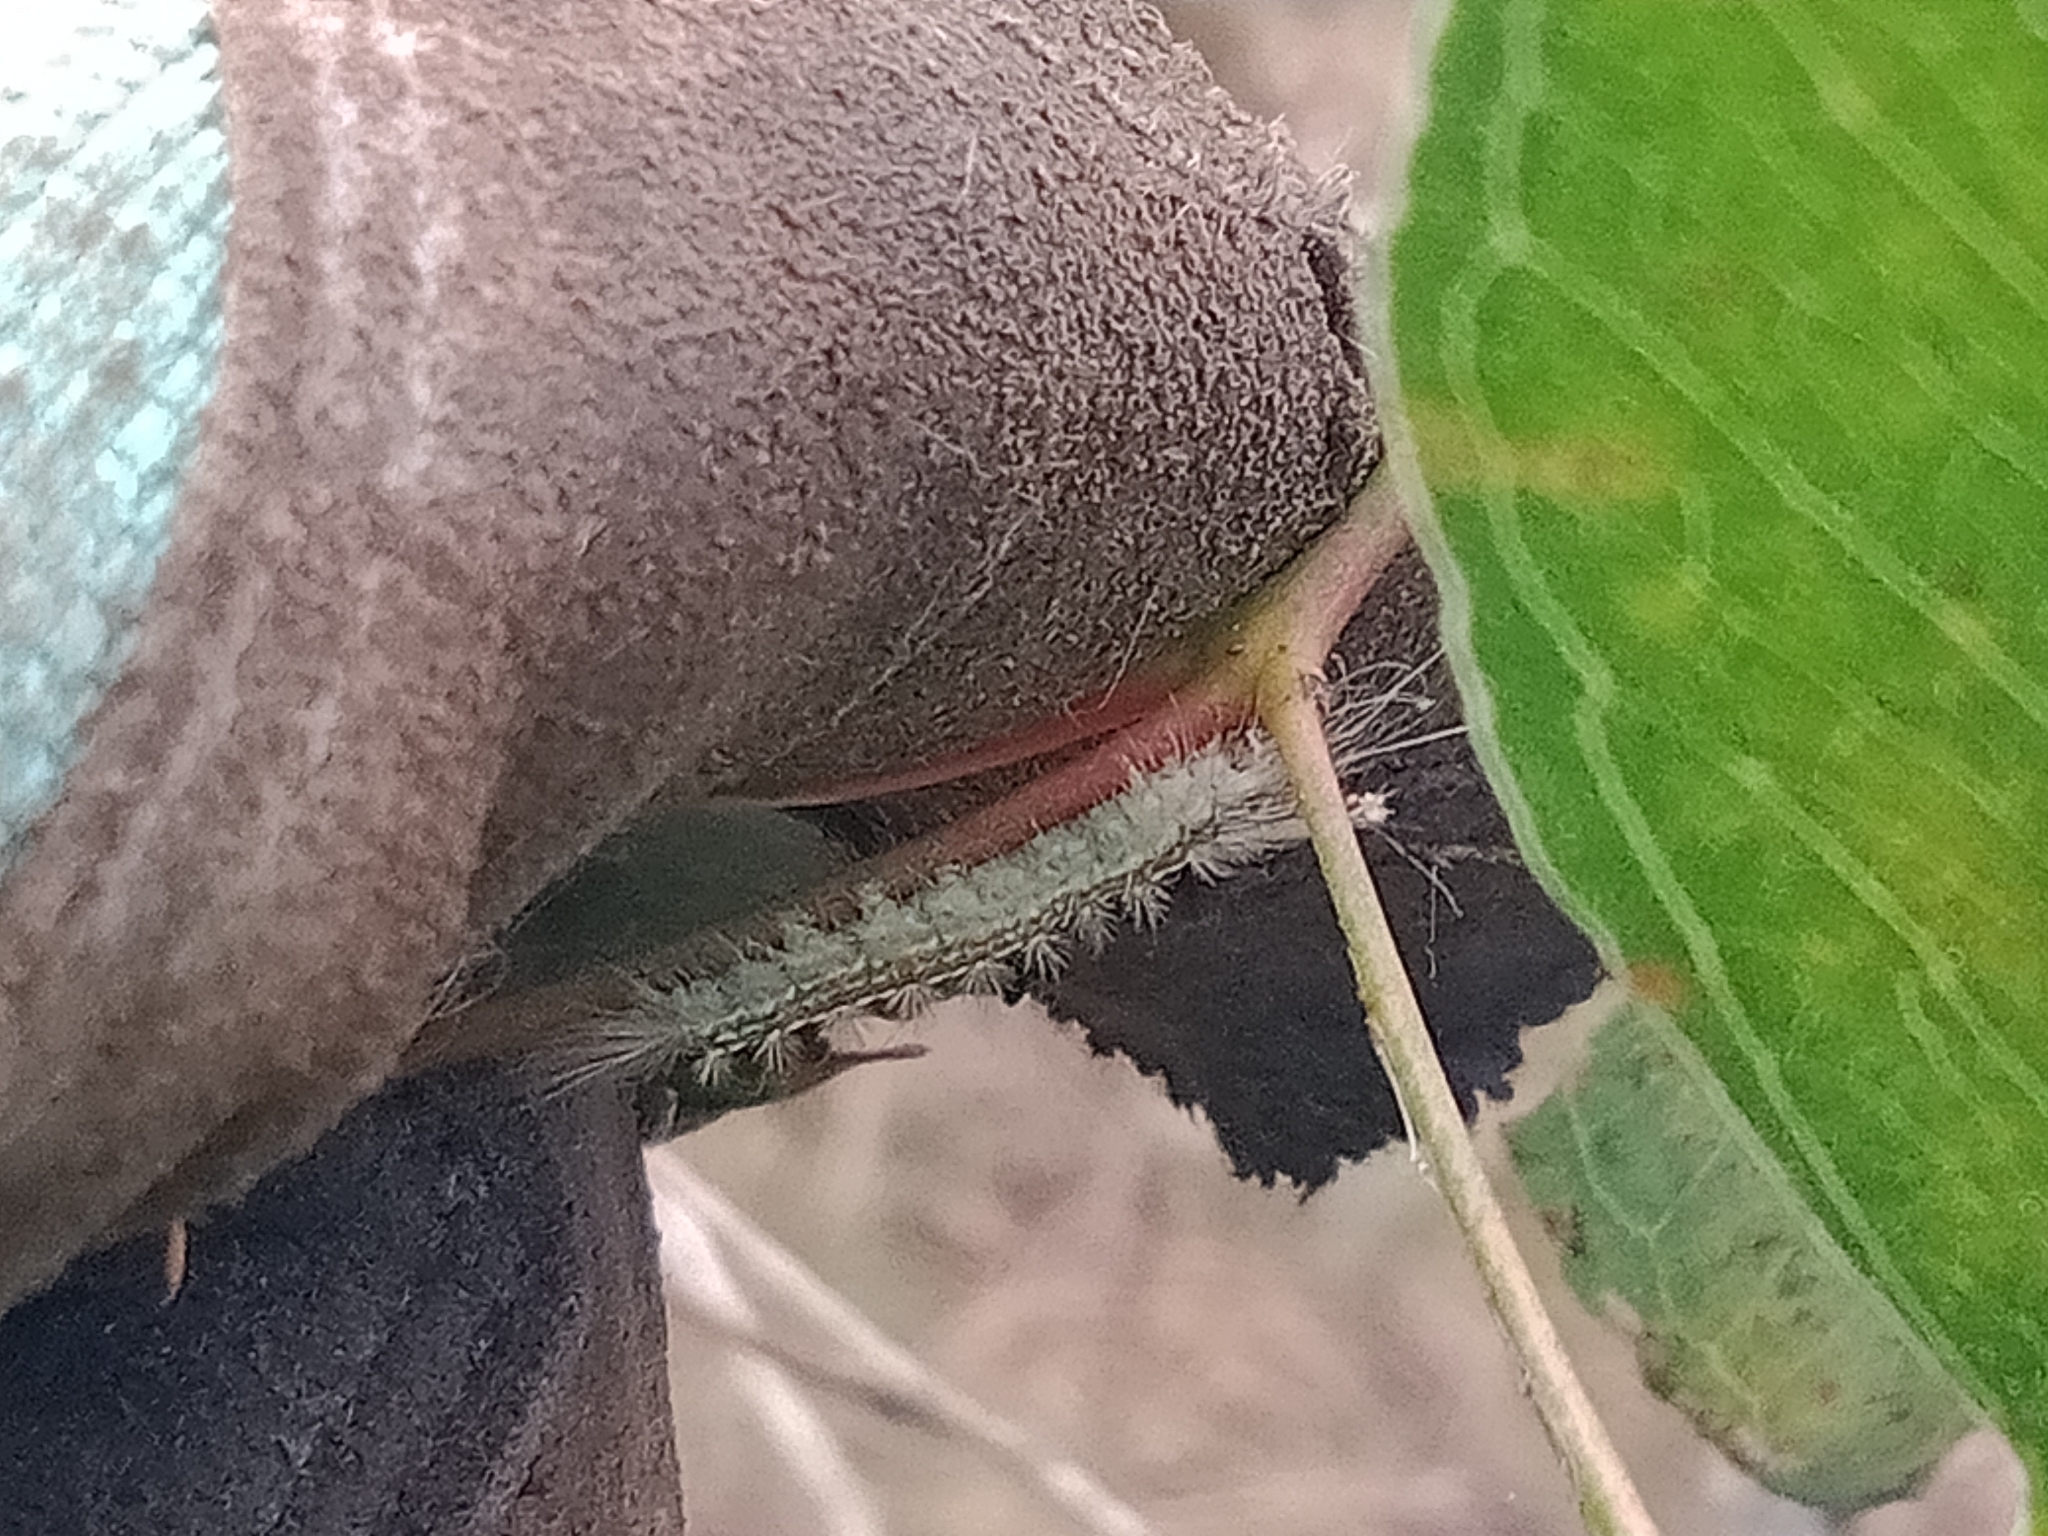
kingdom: Animalia
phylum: Arthropoda
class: Insecta
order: Lepidoptera
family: Nolidae
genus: Uraba
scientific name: Uraba lugens
